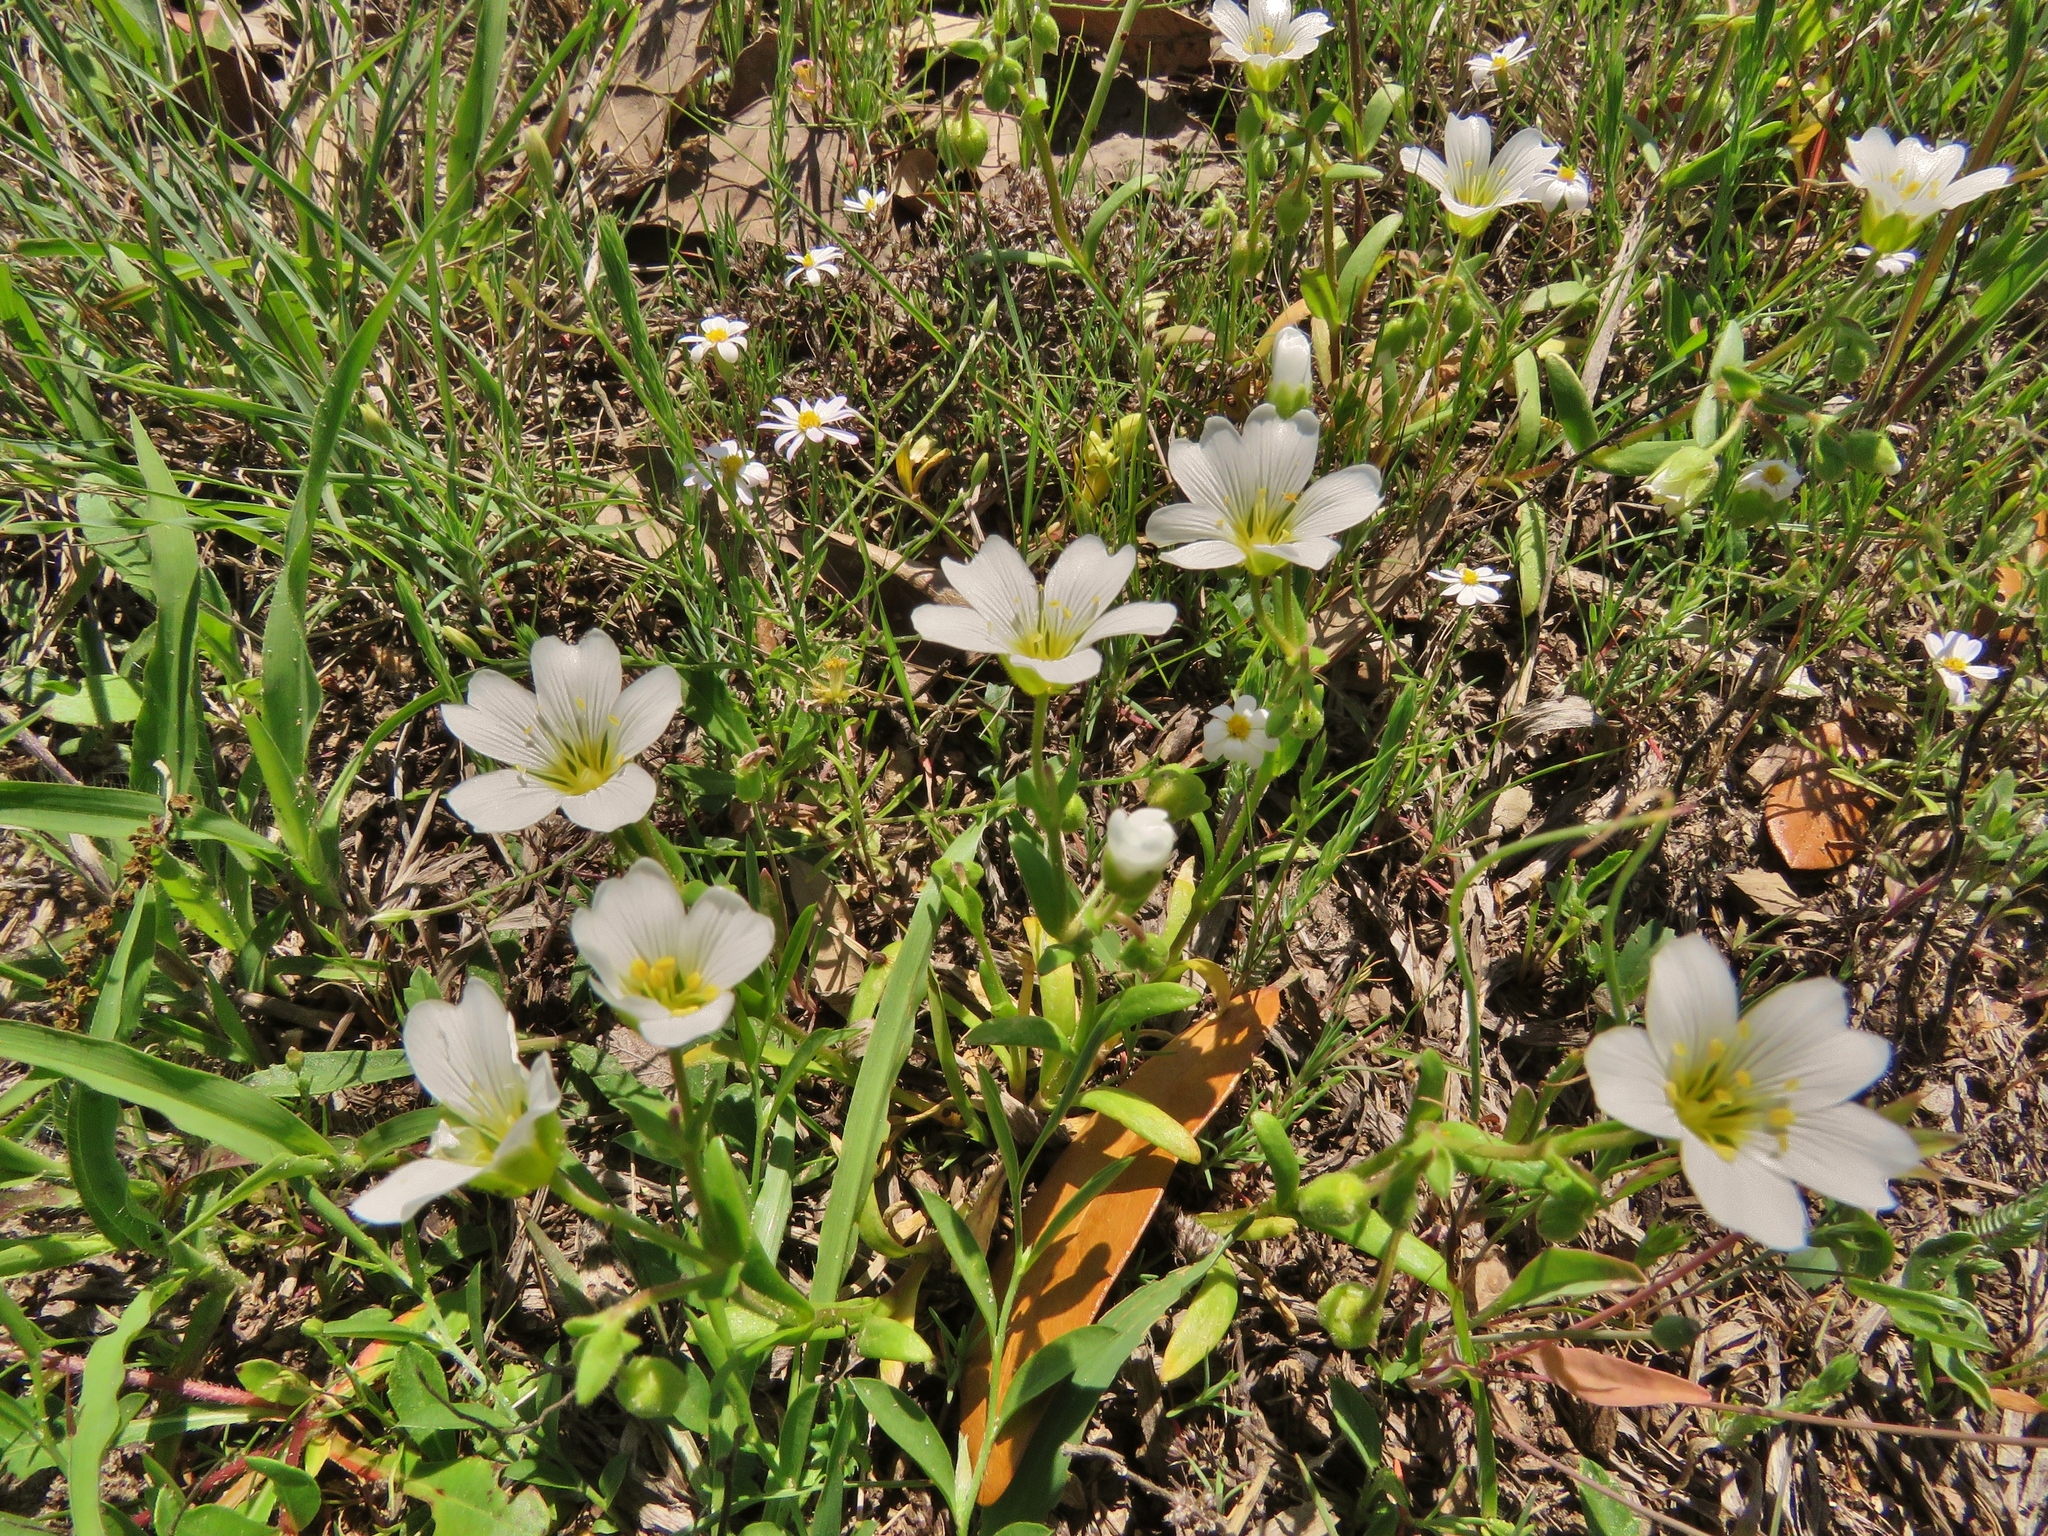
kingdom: Plantae
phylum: Tracheophyta
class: Magnoliopsida
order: Caryophyllales
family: Caryophyllaceae
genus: Geocarpon
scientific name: Geocarpon nuttallii
